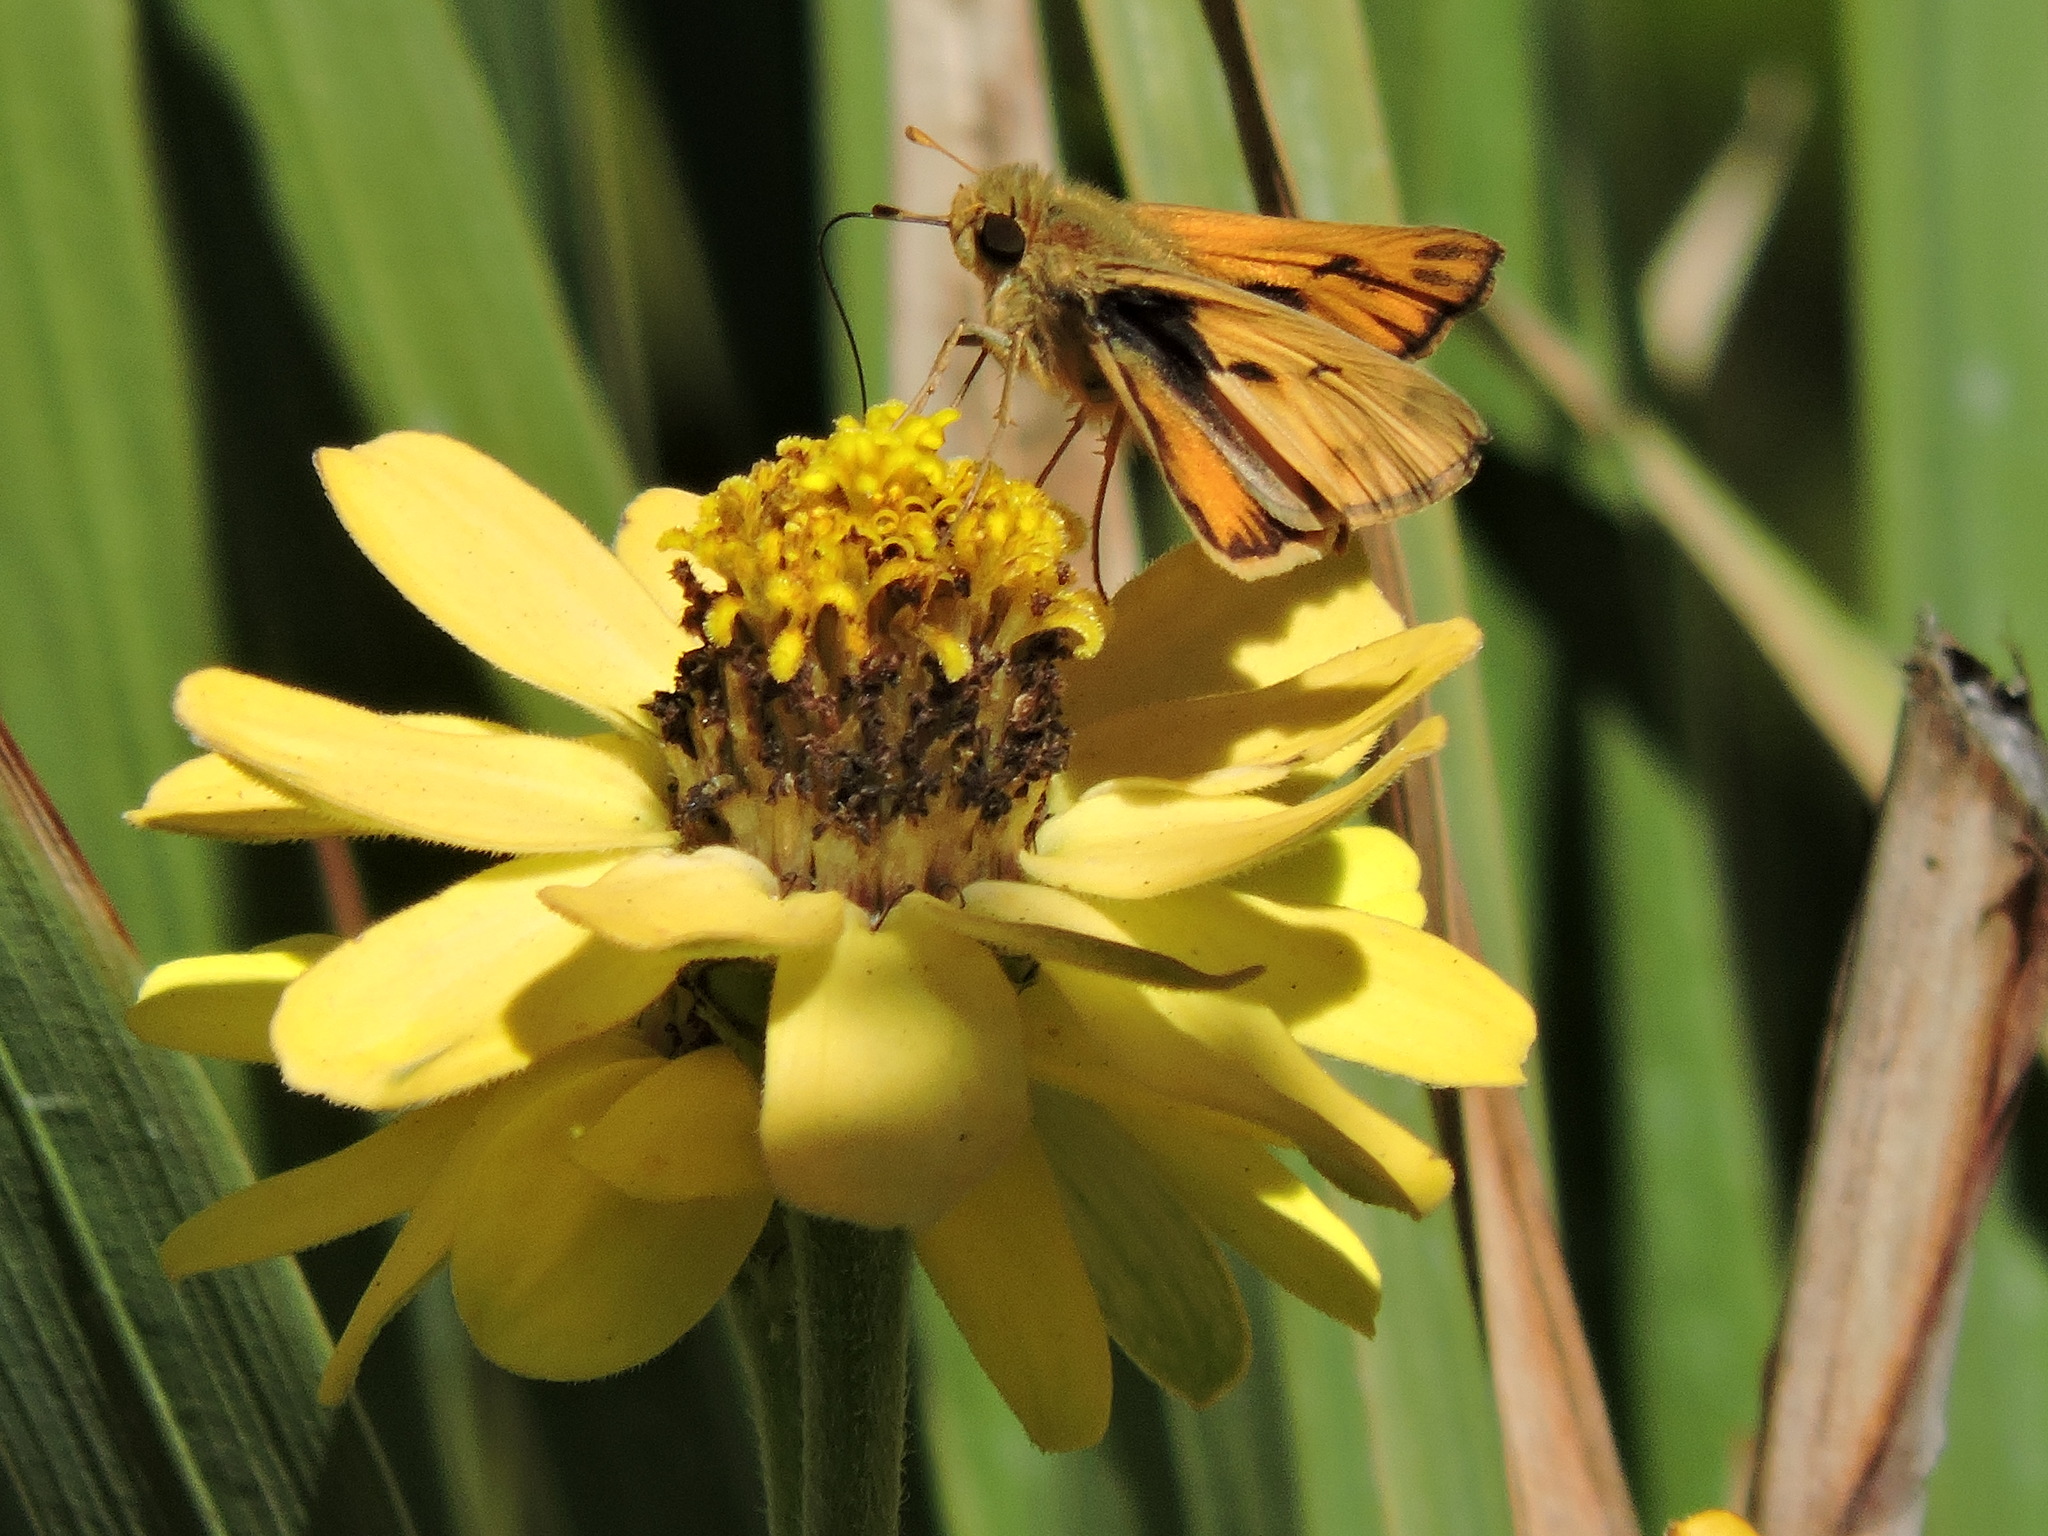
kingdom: Animalia
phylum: Arthropoda
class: Insecta
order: Lepidoptera
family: Hesperiidae
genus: Hylephila
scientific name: Hylephila phyleus
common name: Fiery skipper
